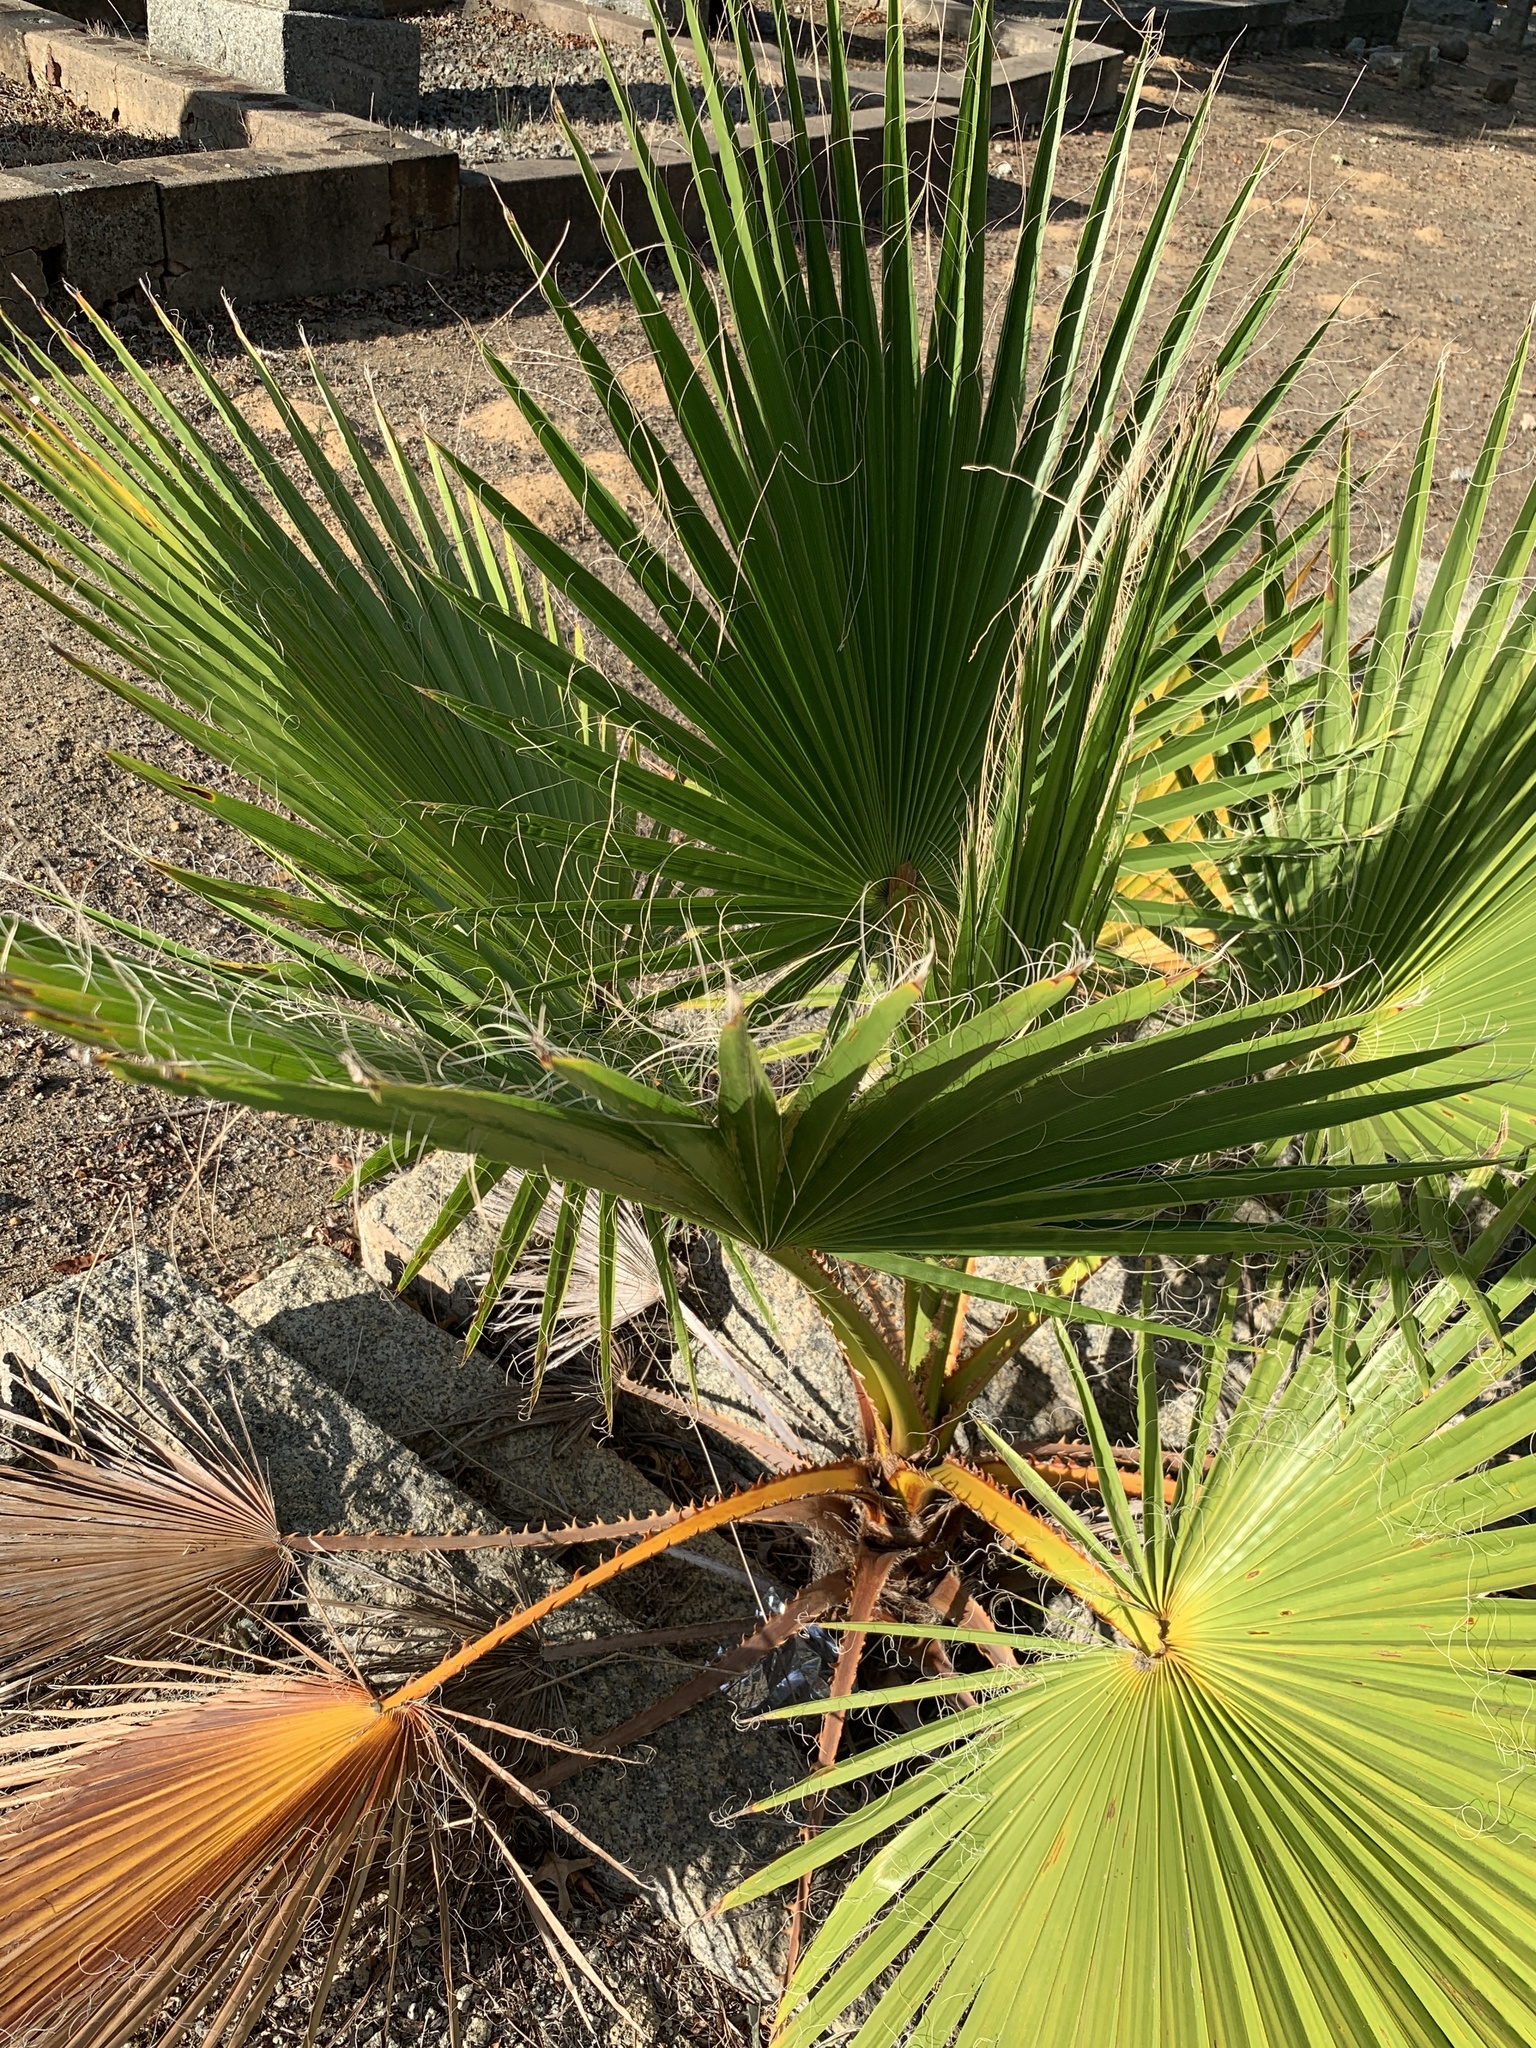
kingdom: Plantae
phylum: Tracheophyta
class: Liliopsida
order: Arecales
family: Arecaceae
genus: Washingtonia
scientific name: Washingtonia robusta
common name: Mexican fan palm
